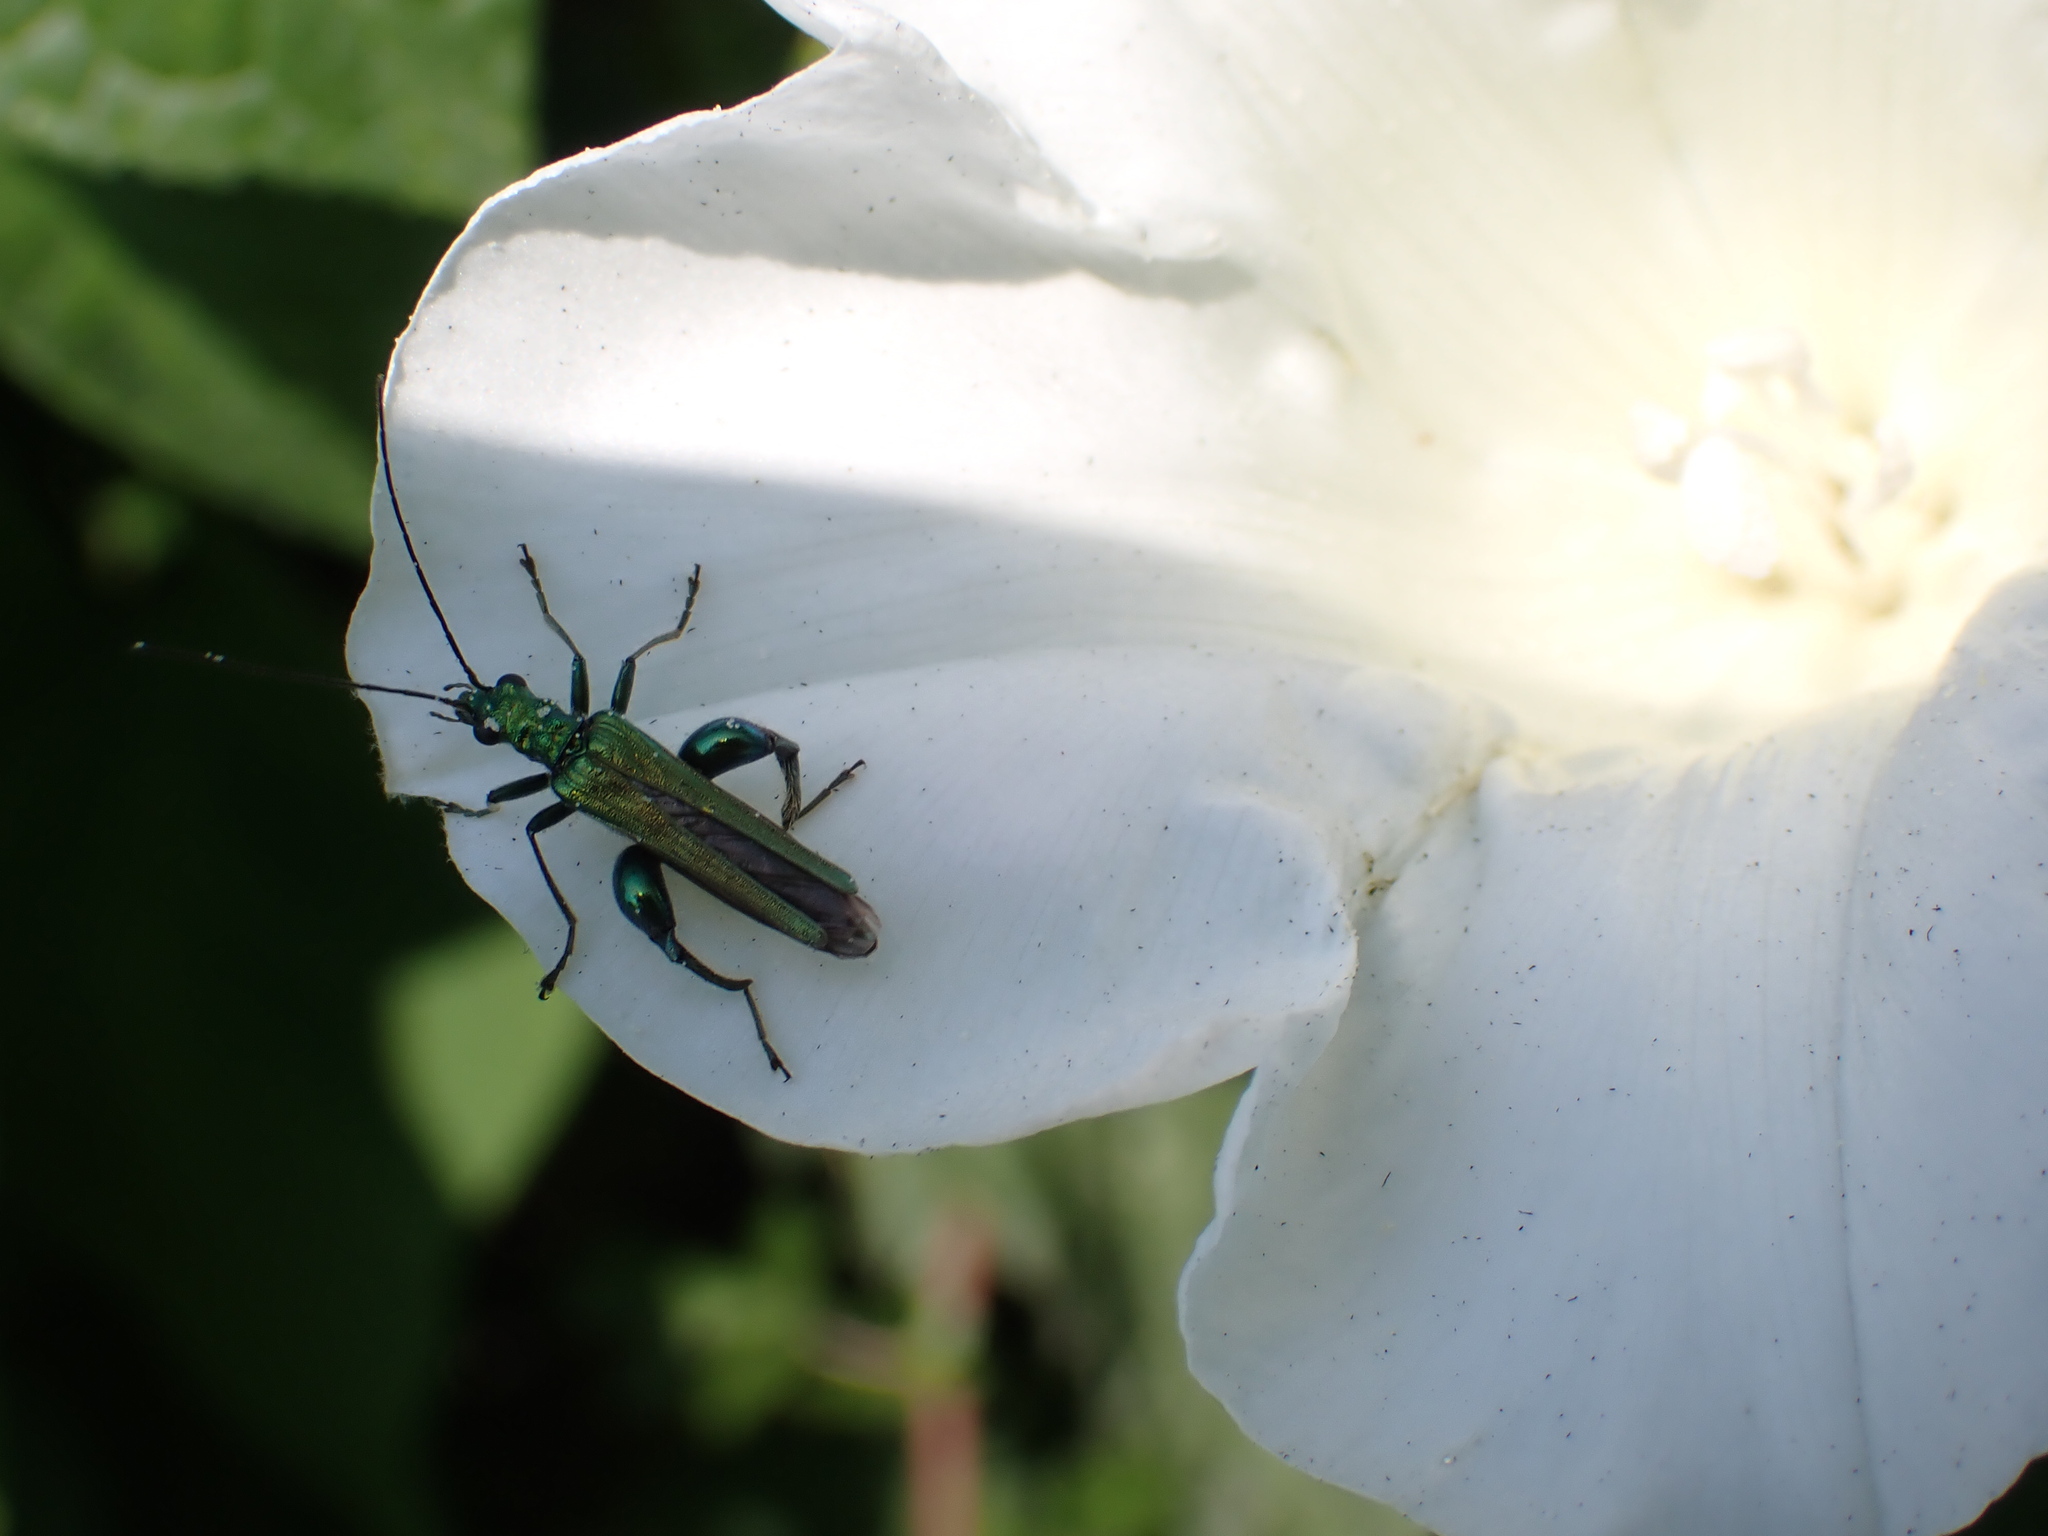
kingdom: Animalia
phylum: Arthropoda
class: Insecta
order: Coleoptera
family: Oedemeridae
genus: Oedemera
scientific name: Oedemera nobilis
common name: Swollen-thighed beetle
